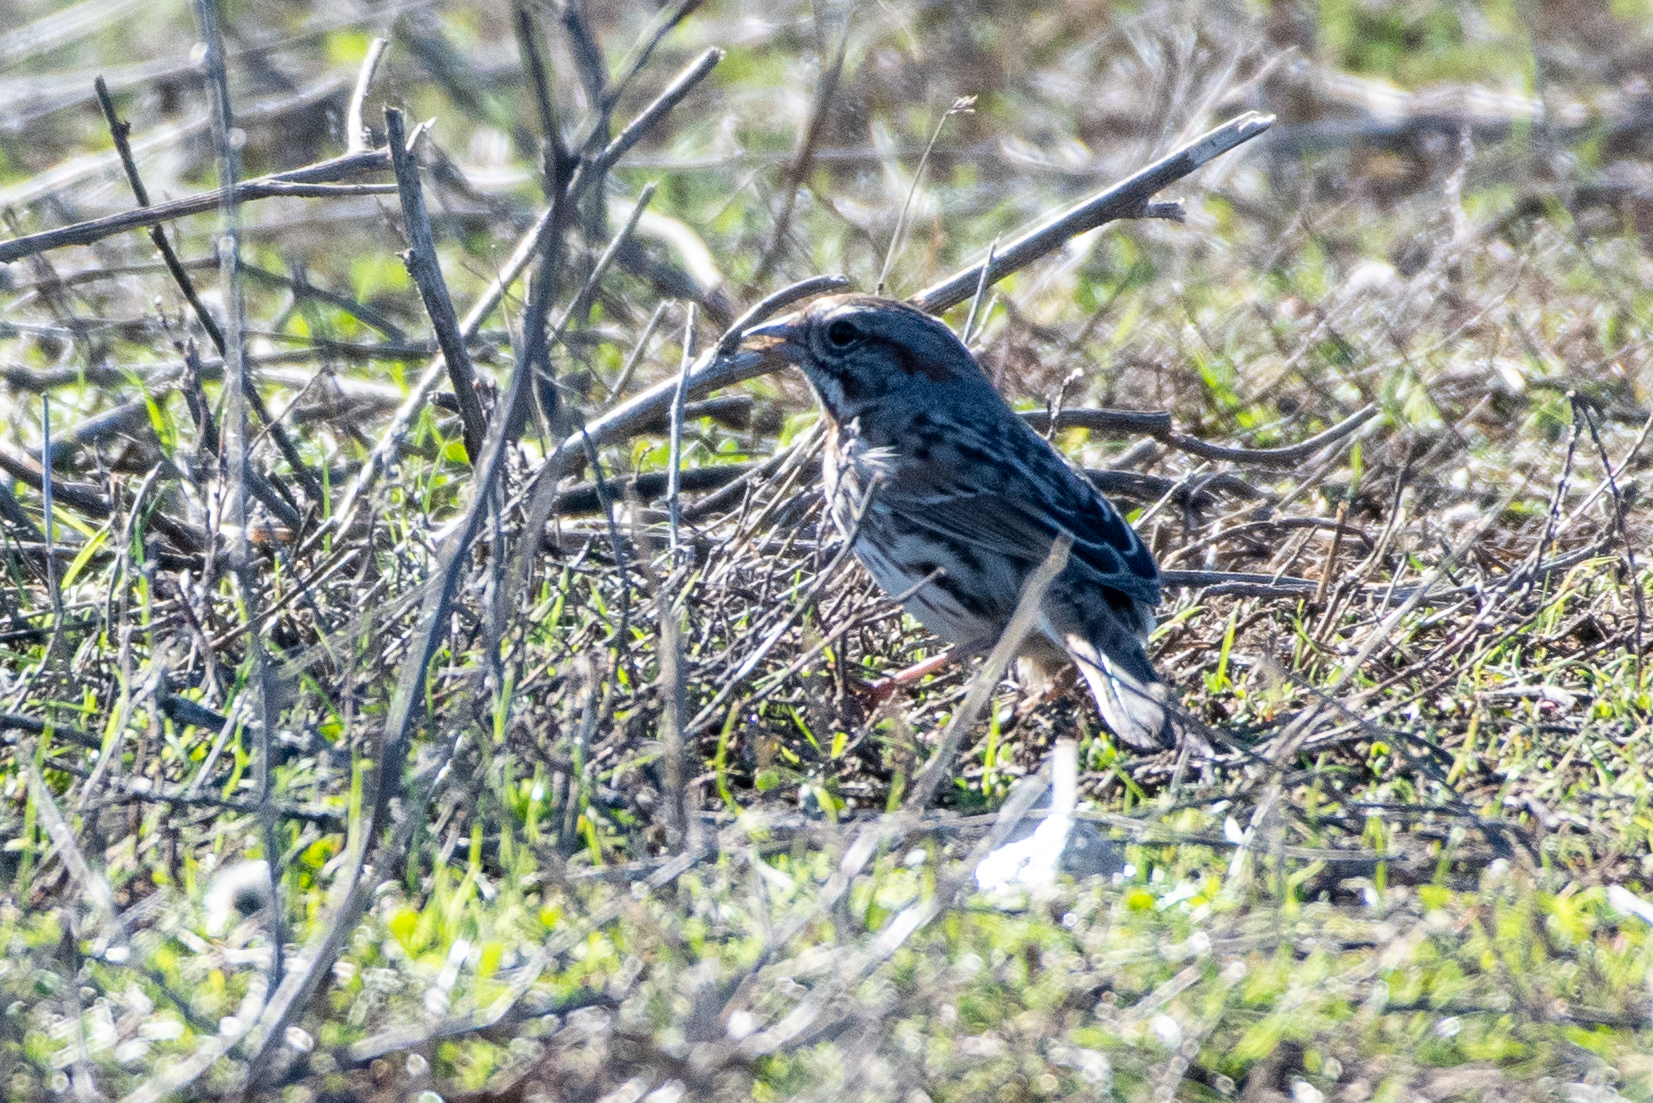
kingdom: Animalia
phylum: Chordata
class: Aves
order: Passeriformes
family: Passerellidae
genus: Melospiza
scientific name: Melospiza melodia
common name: Song sparrow
